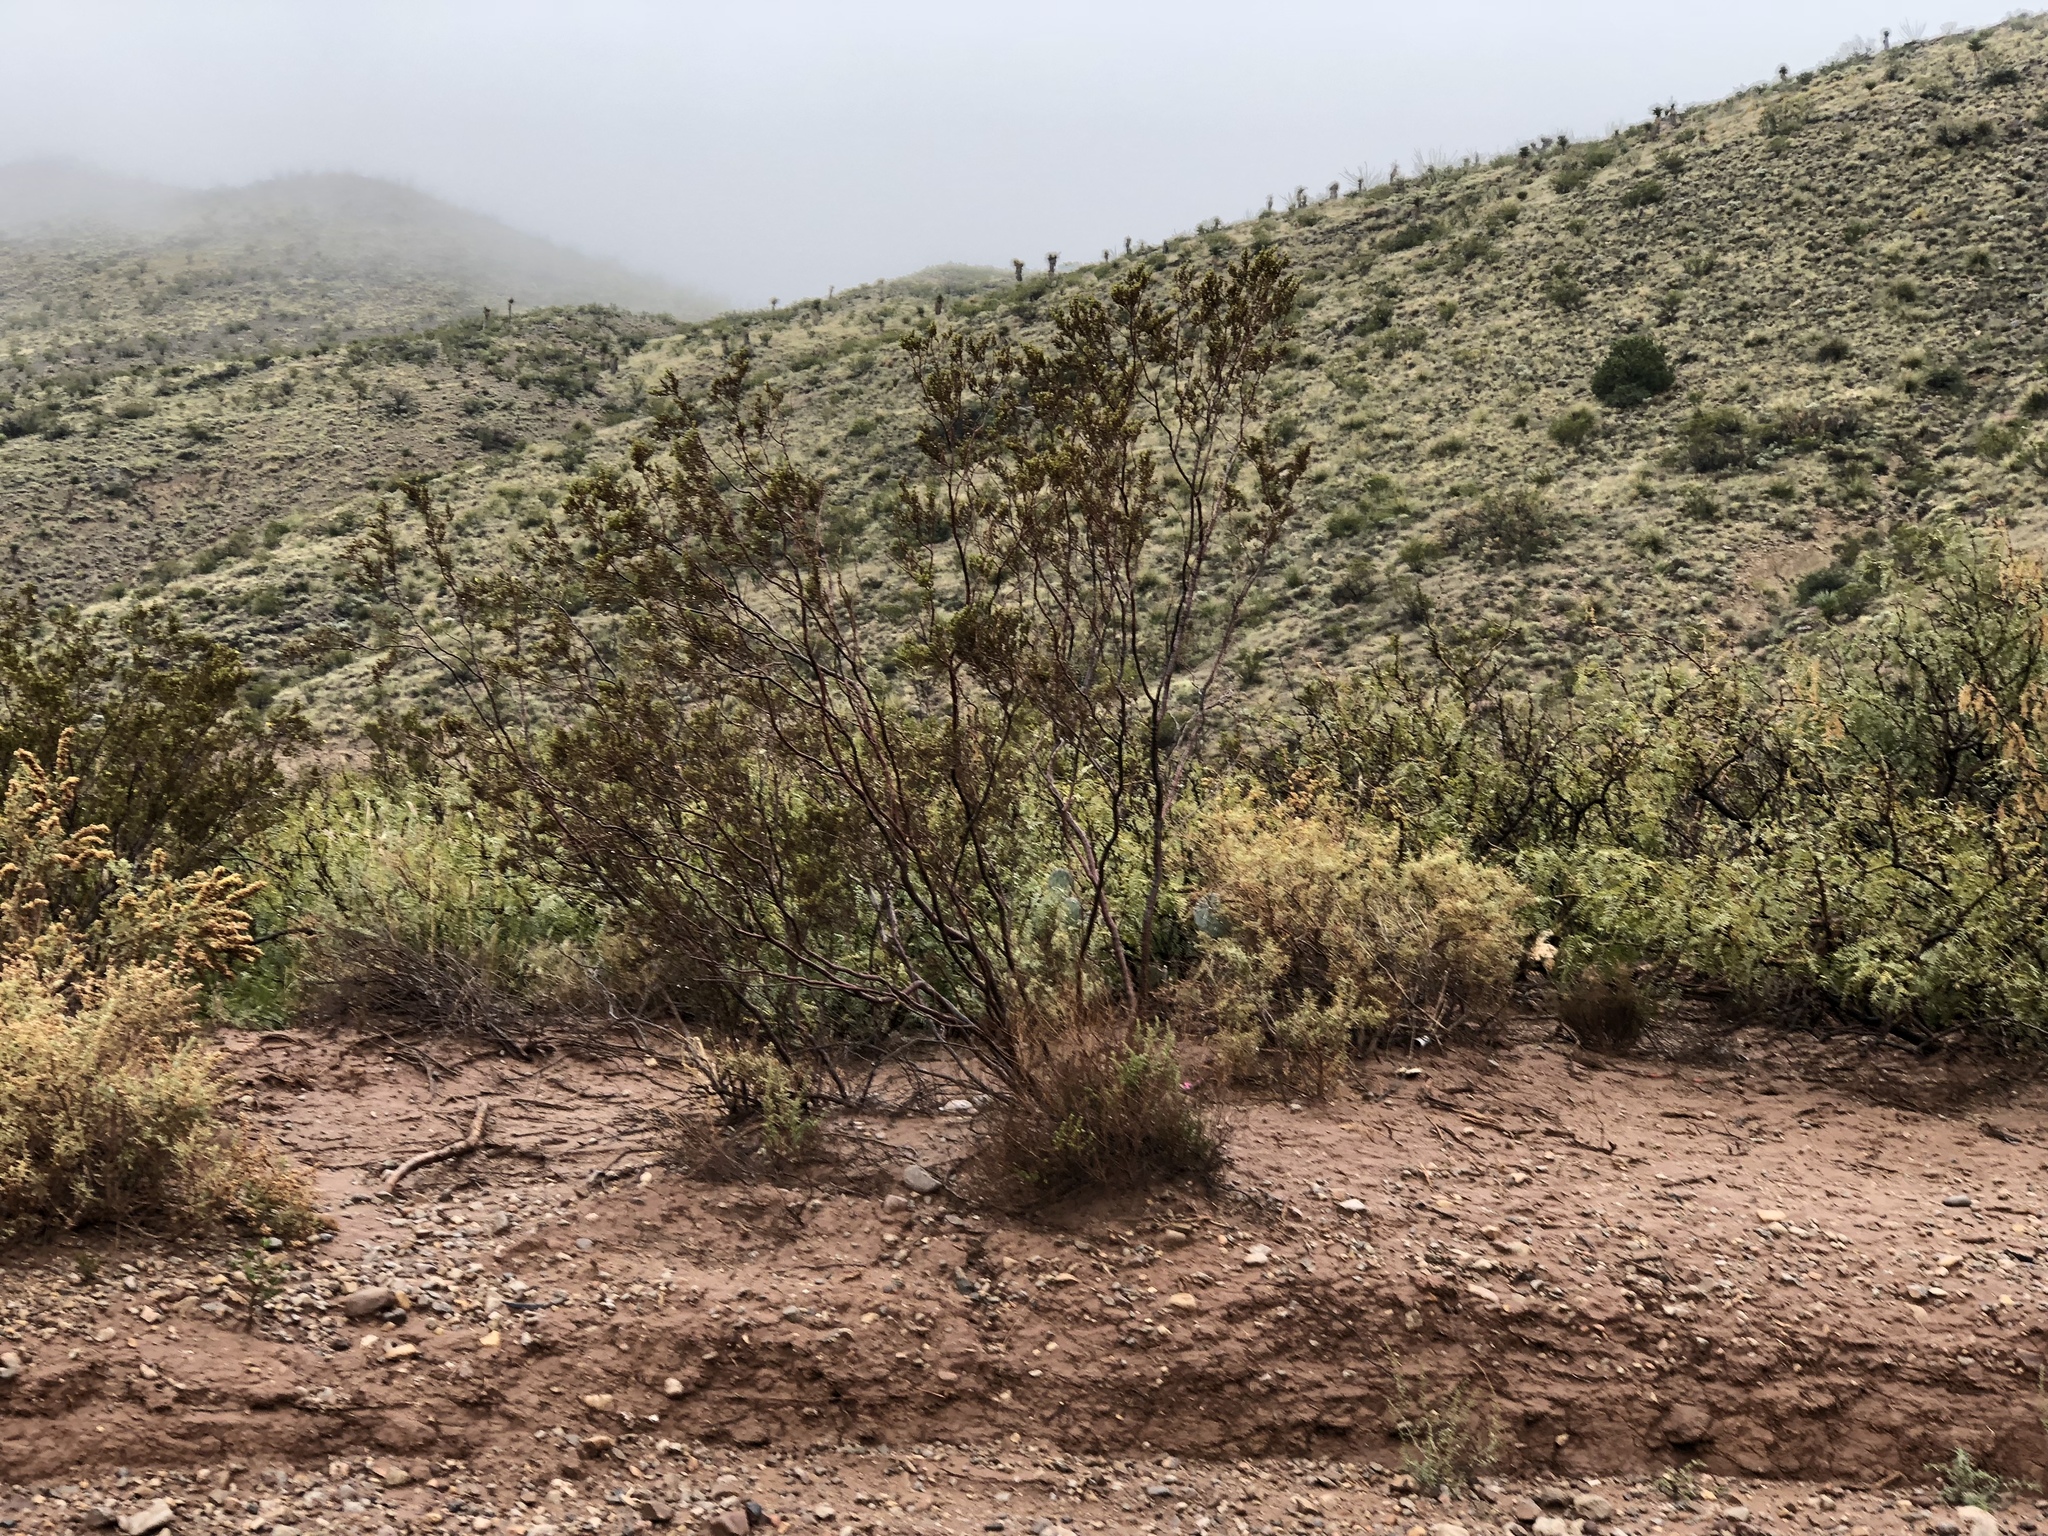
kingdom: Plantae
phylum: Tracheophyta
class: Magnoliopsida
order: Zygophyllales
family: Zygophyllaceae
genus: Larrea
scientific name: Larrea tridentata
